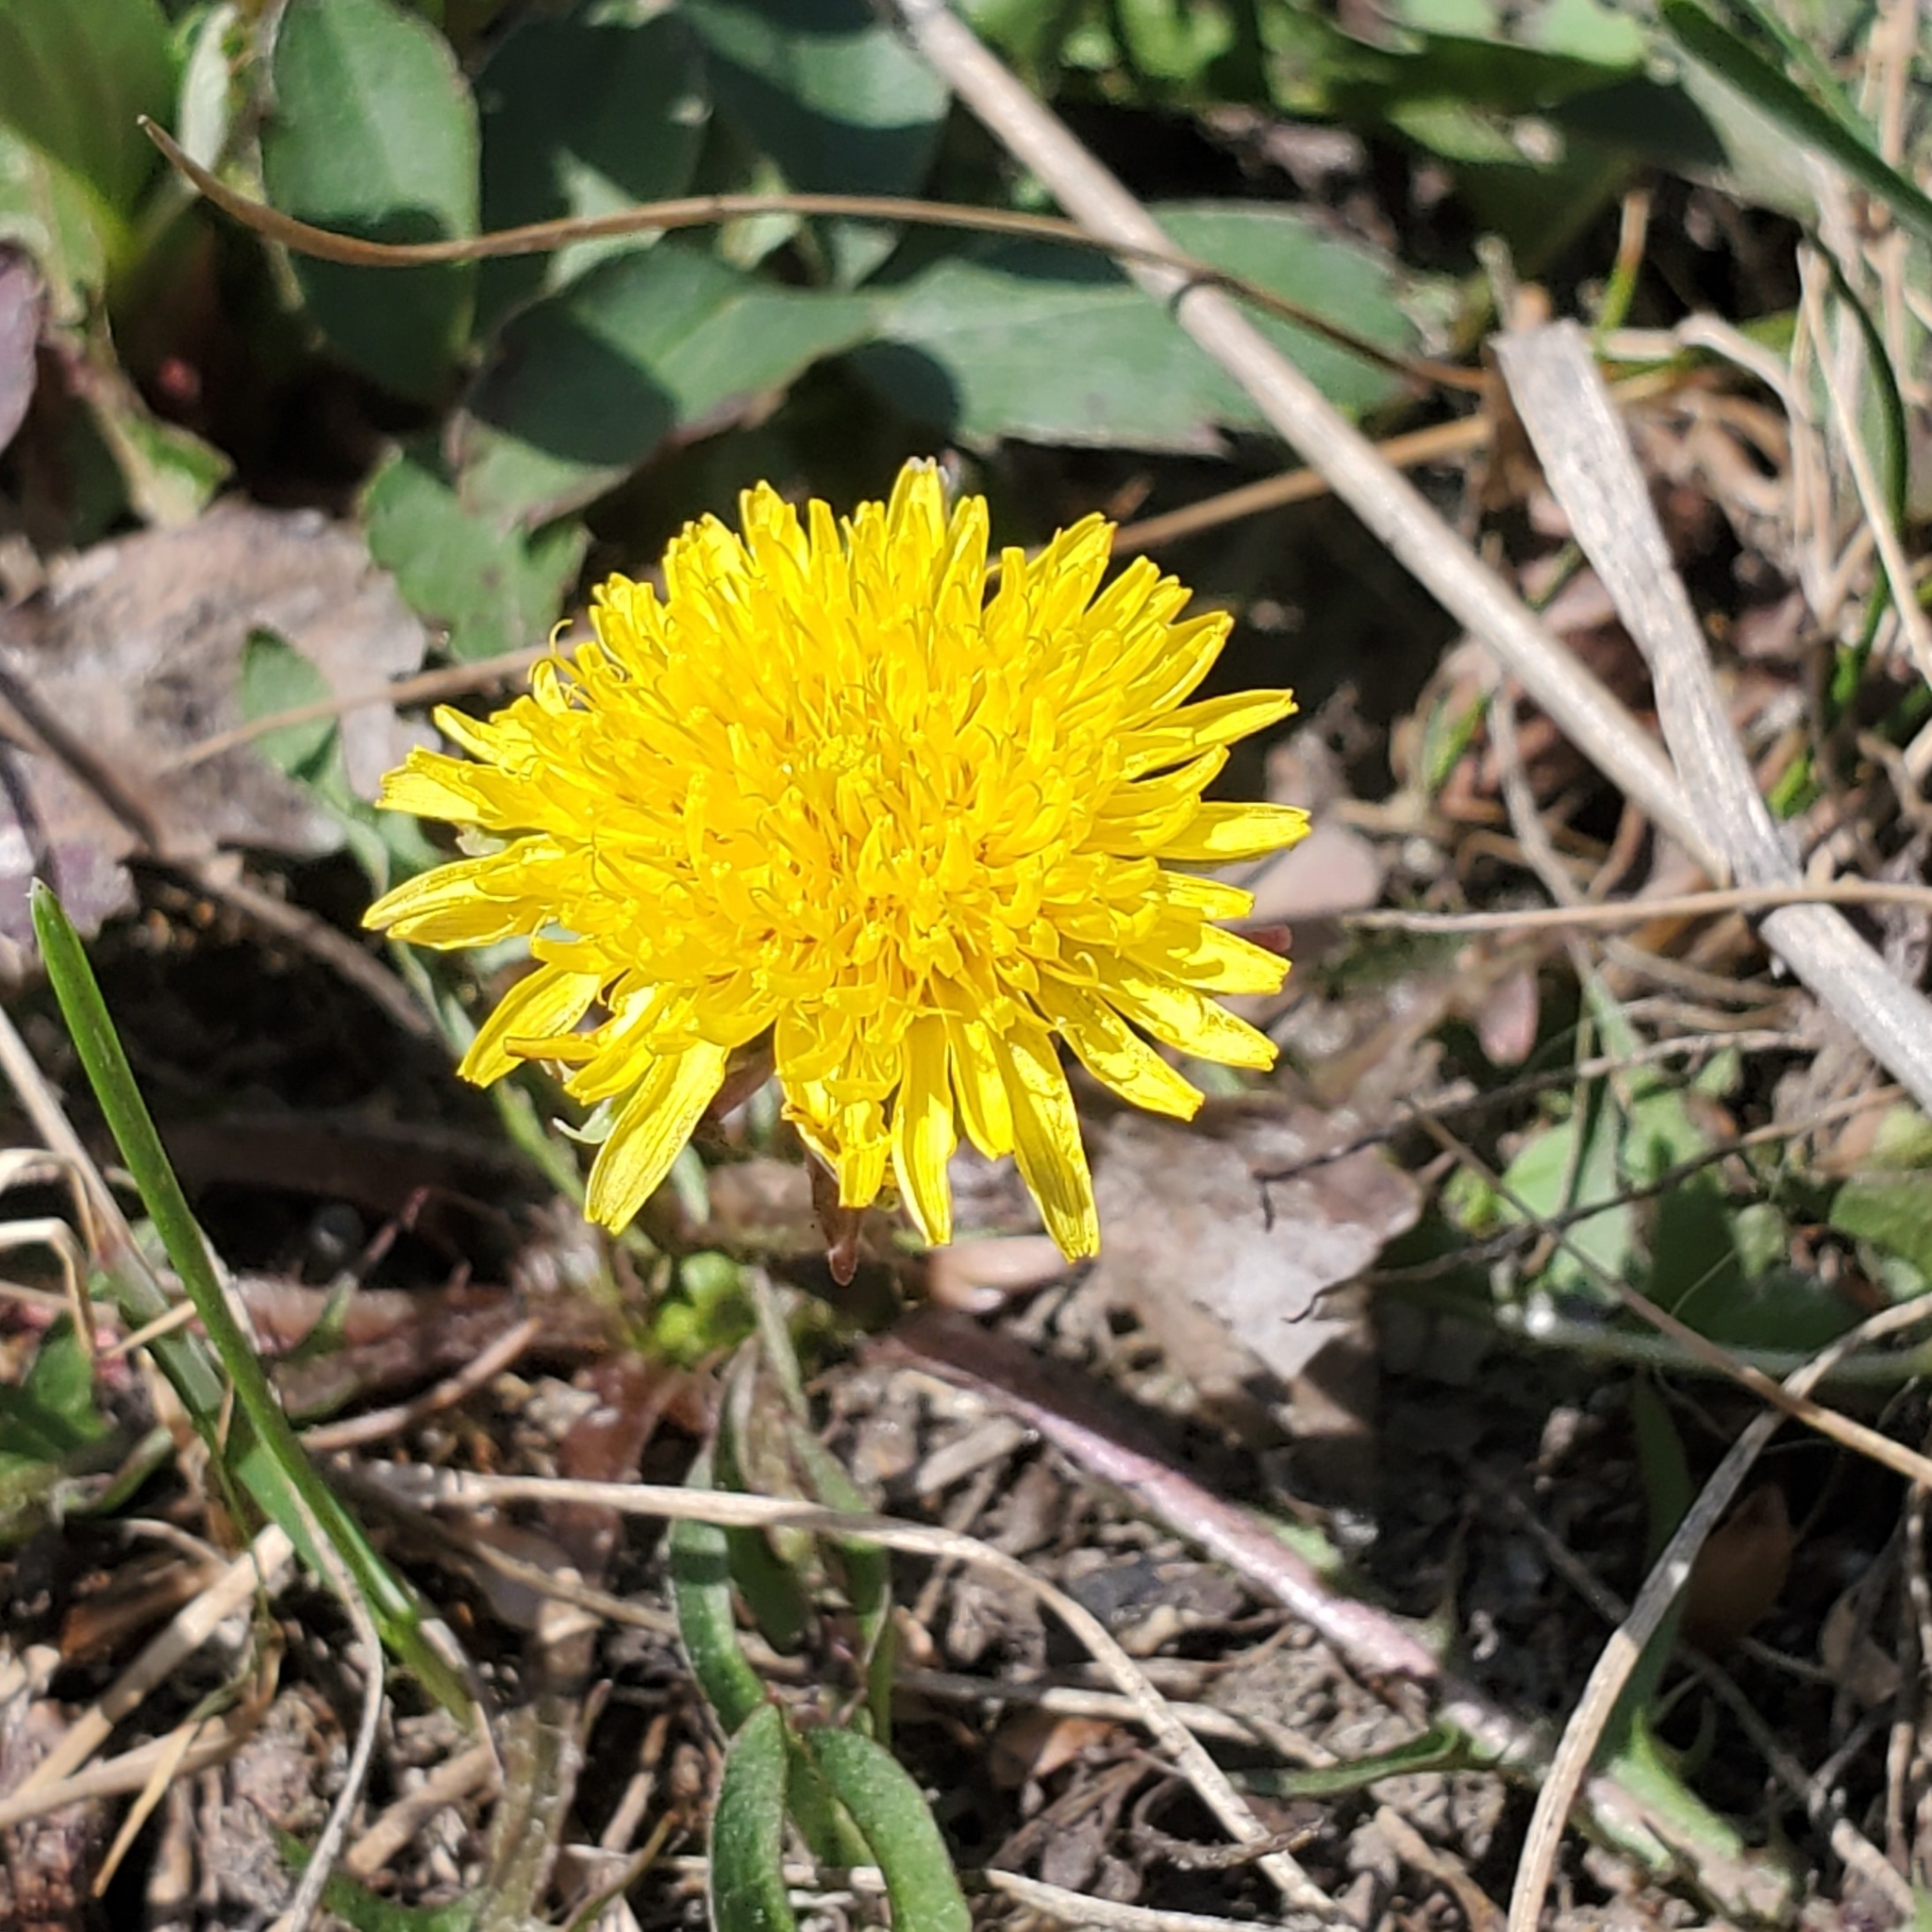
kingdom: Plantae
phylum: Tracheophyta
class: Magnoliopsida
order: Asterales
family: Asteraceae
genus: Taraxacum
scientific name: Taraxacum officinale
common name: Common dandelion
